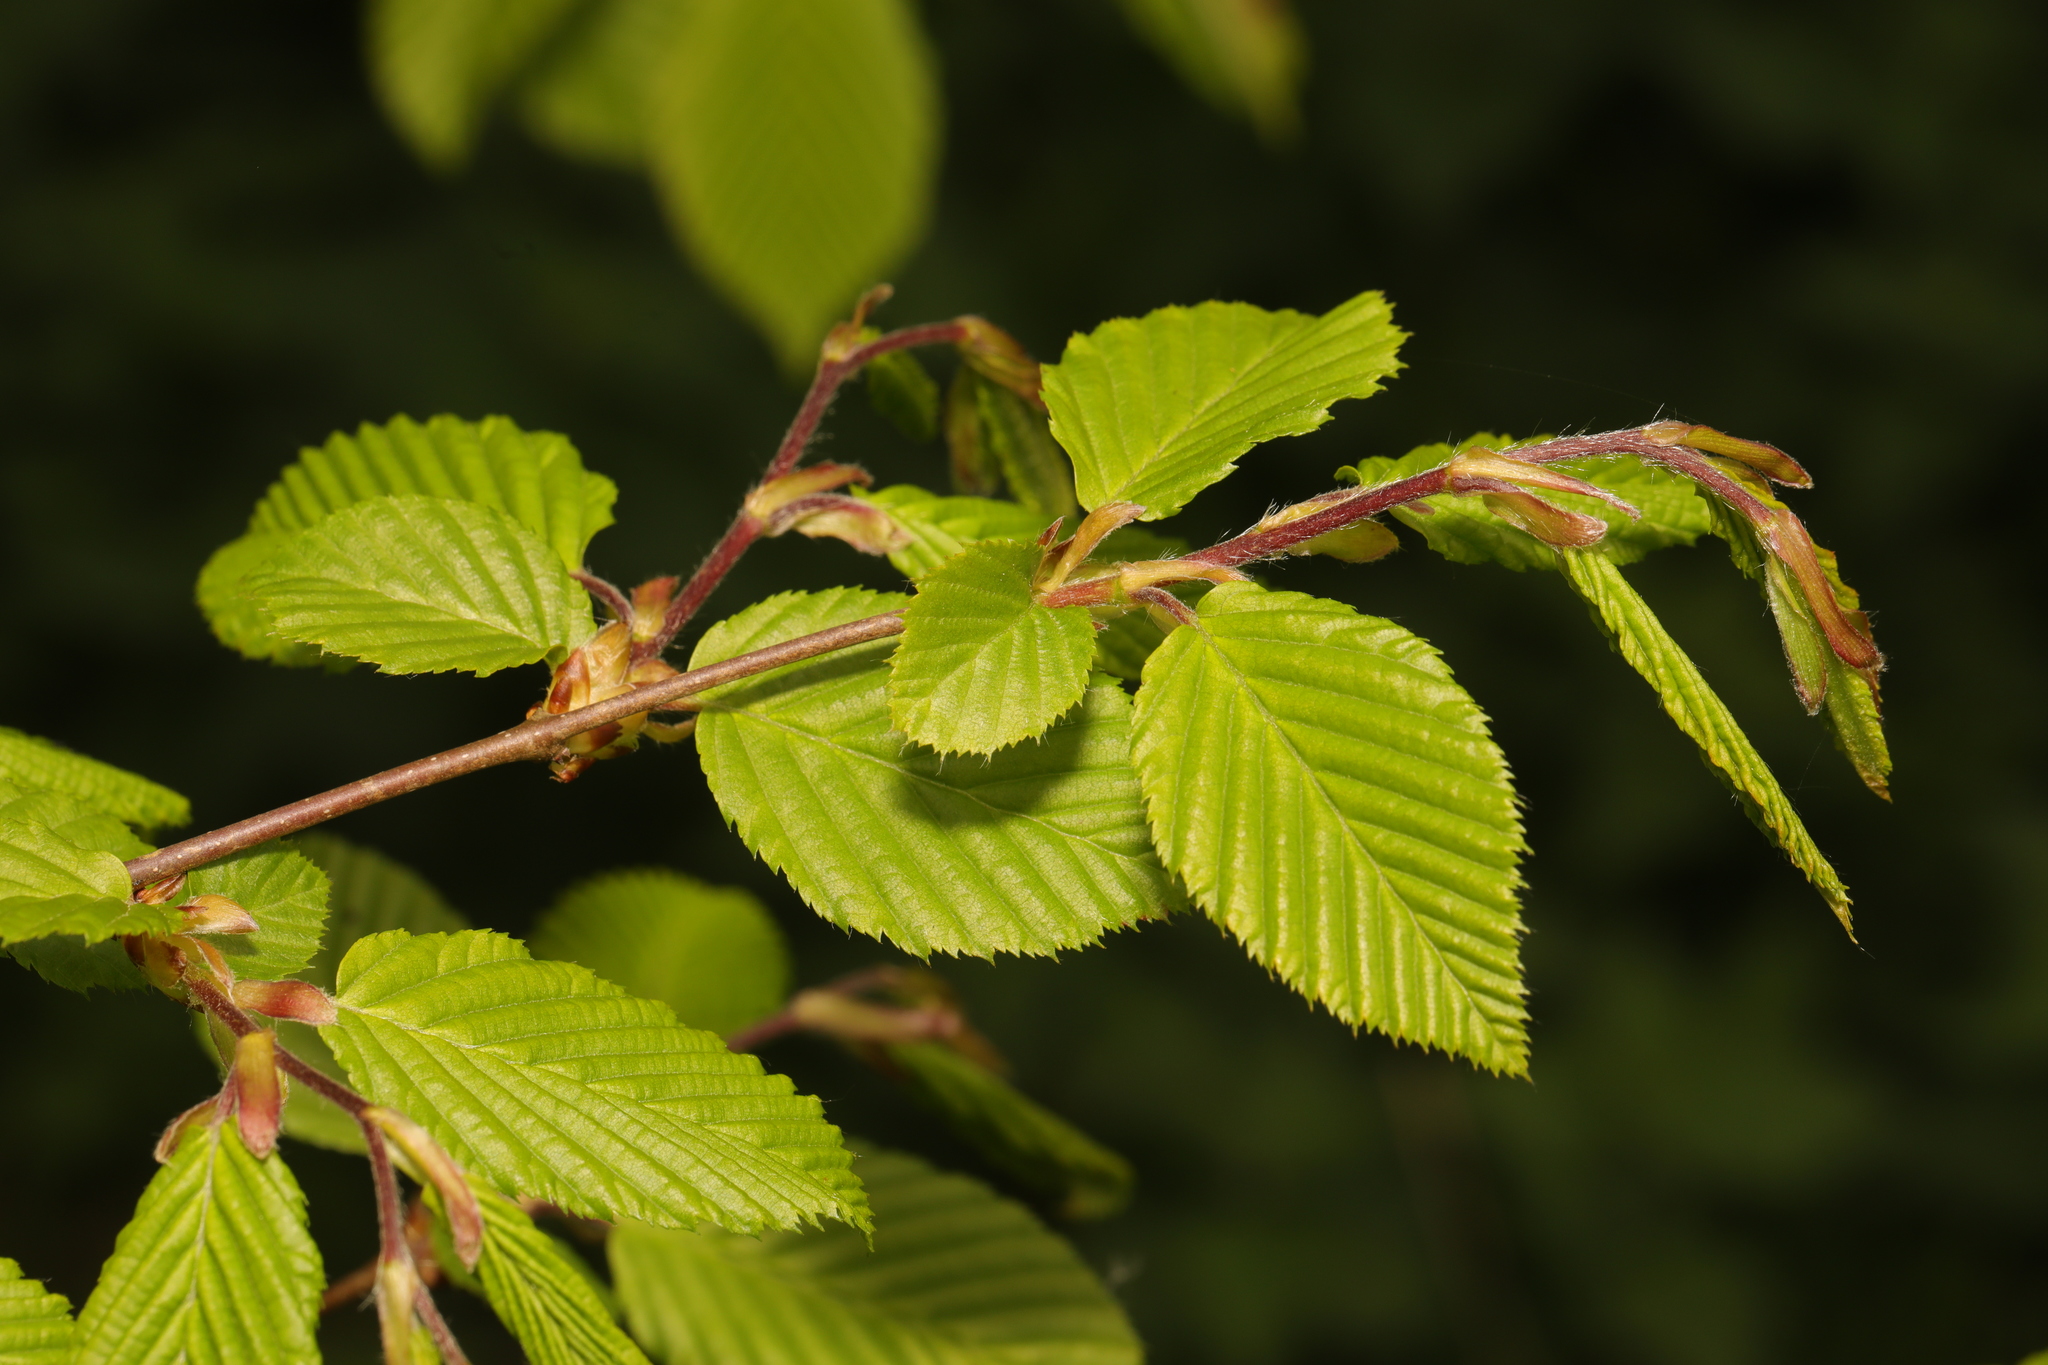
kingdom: Plantae
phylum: Tracheophyta
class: Magnoliopsida
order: Fagales
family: Betulaceae
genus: Carpinus
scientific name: Carpinus betulus
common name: Hornbeam
